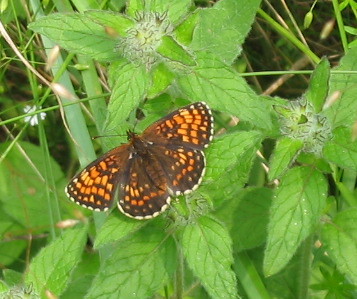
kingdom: Plantae
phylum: Tracheophyta
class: Magnoliopsida
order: Lamiales
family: Lamiaceae
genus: Clinopodium
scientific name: Clinopodium vulgare
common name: Wild basil
